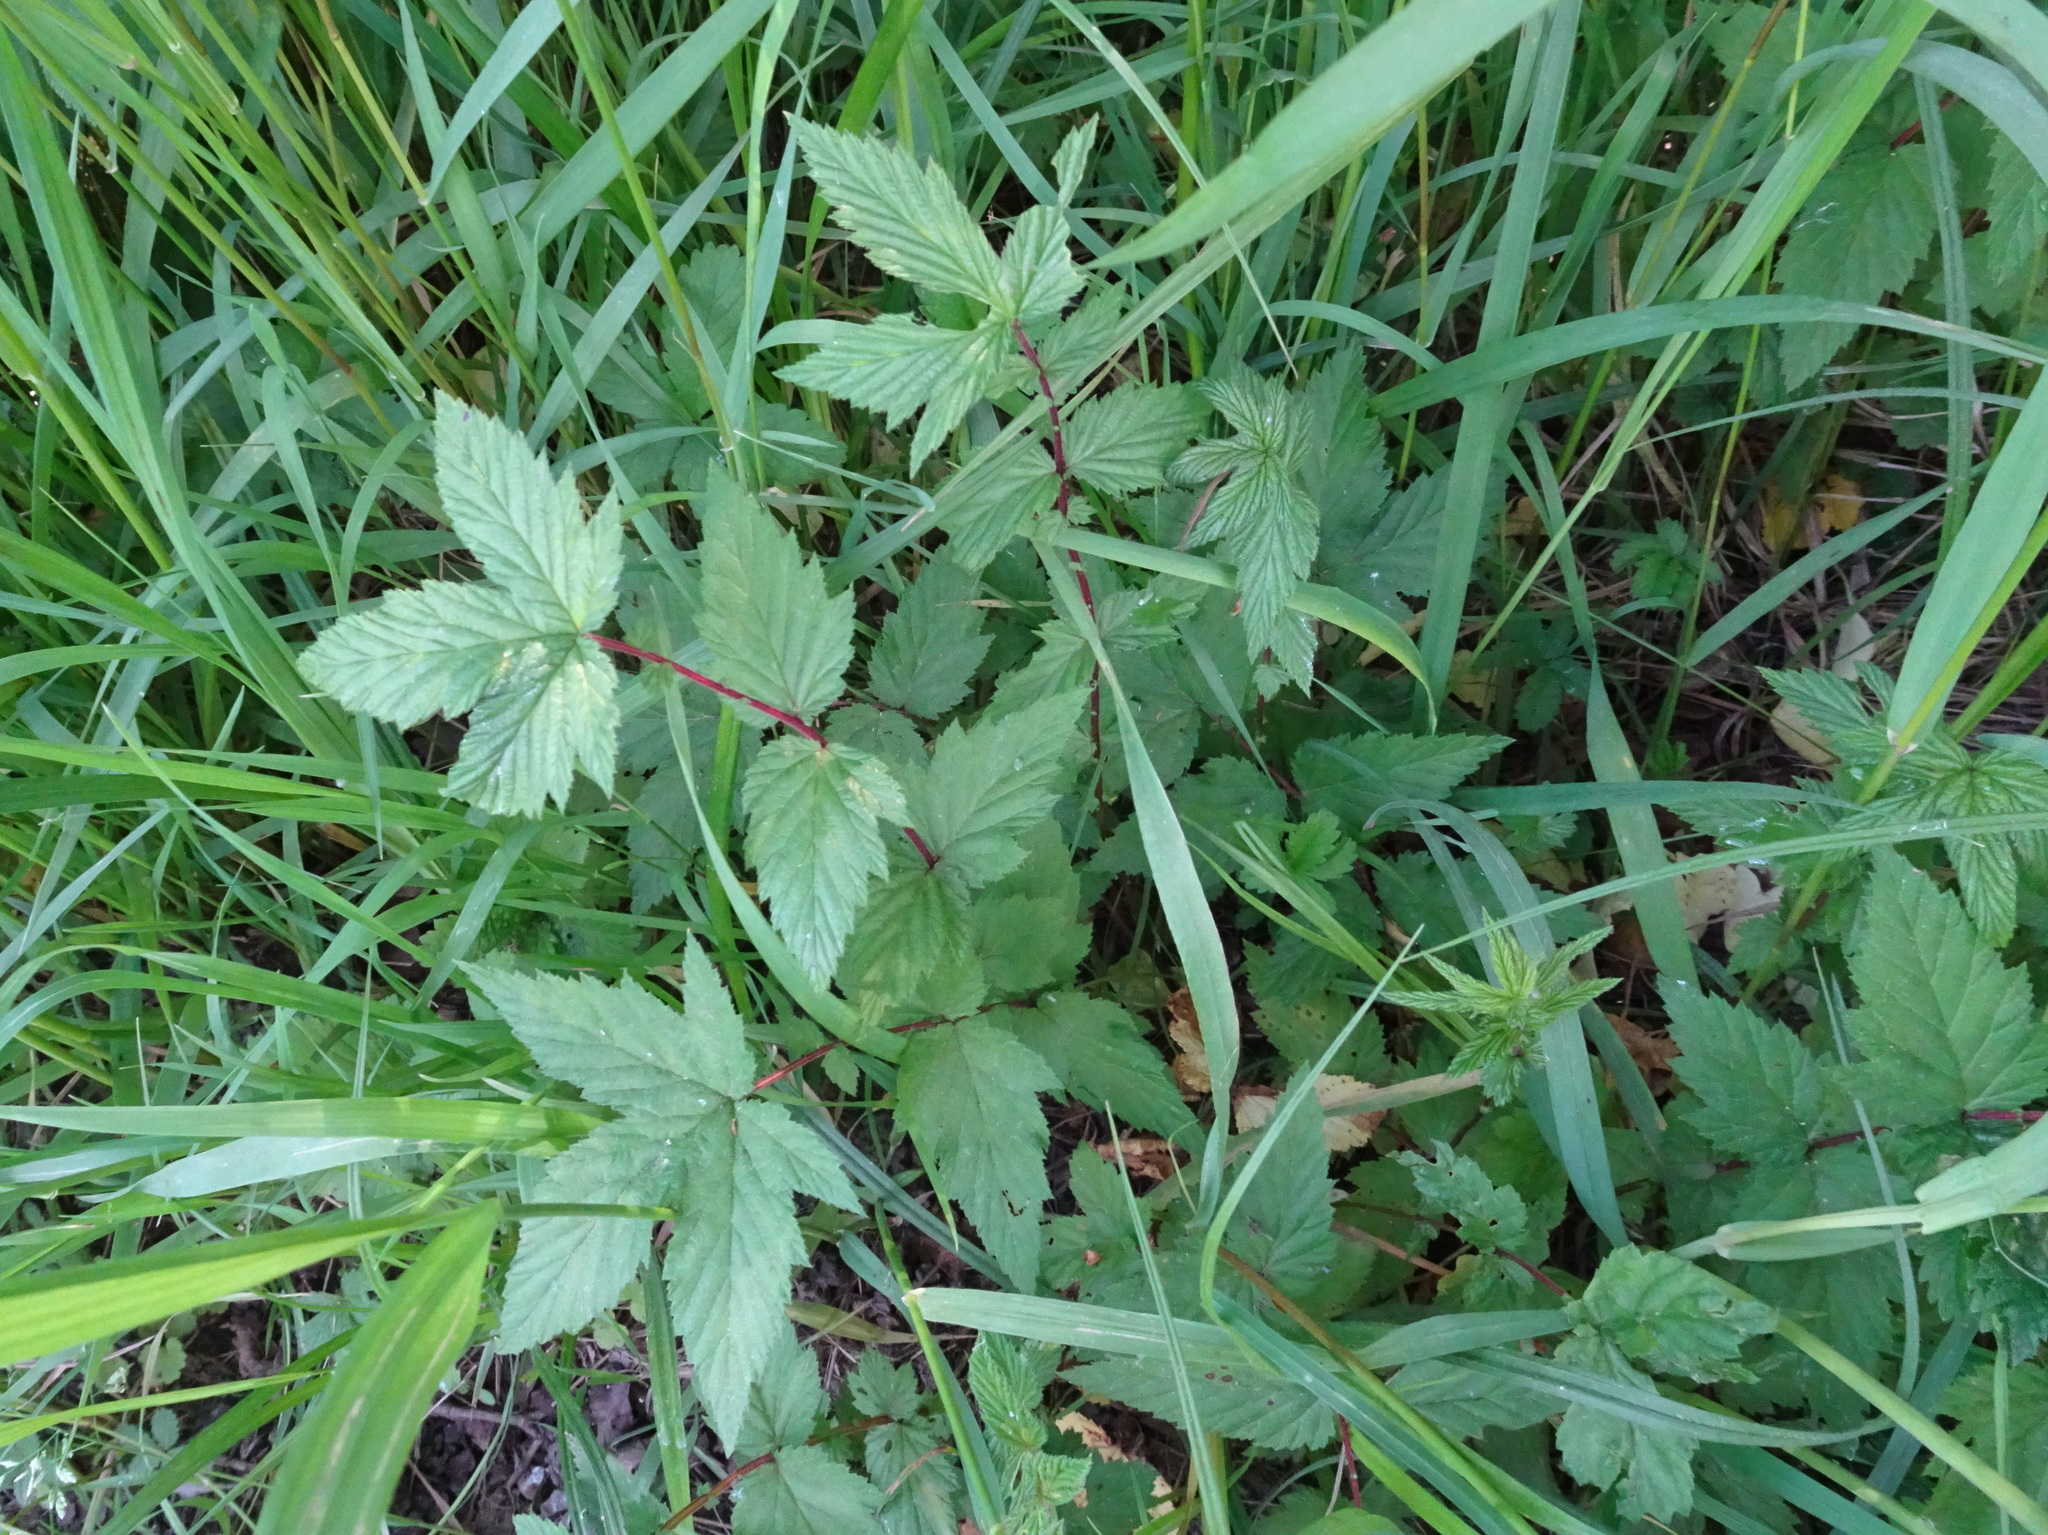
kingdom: Plantae
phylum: Tracheophyta
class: Magnoliopsida
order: Rosales
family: Rosaceae
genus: Filipendula
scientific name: Filipendula ulmaria
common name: Meadowsweet
